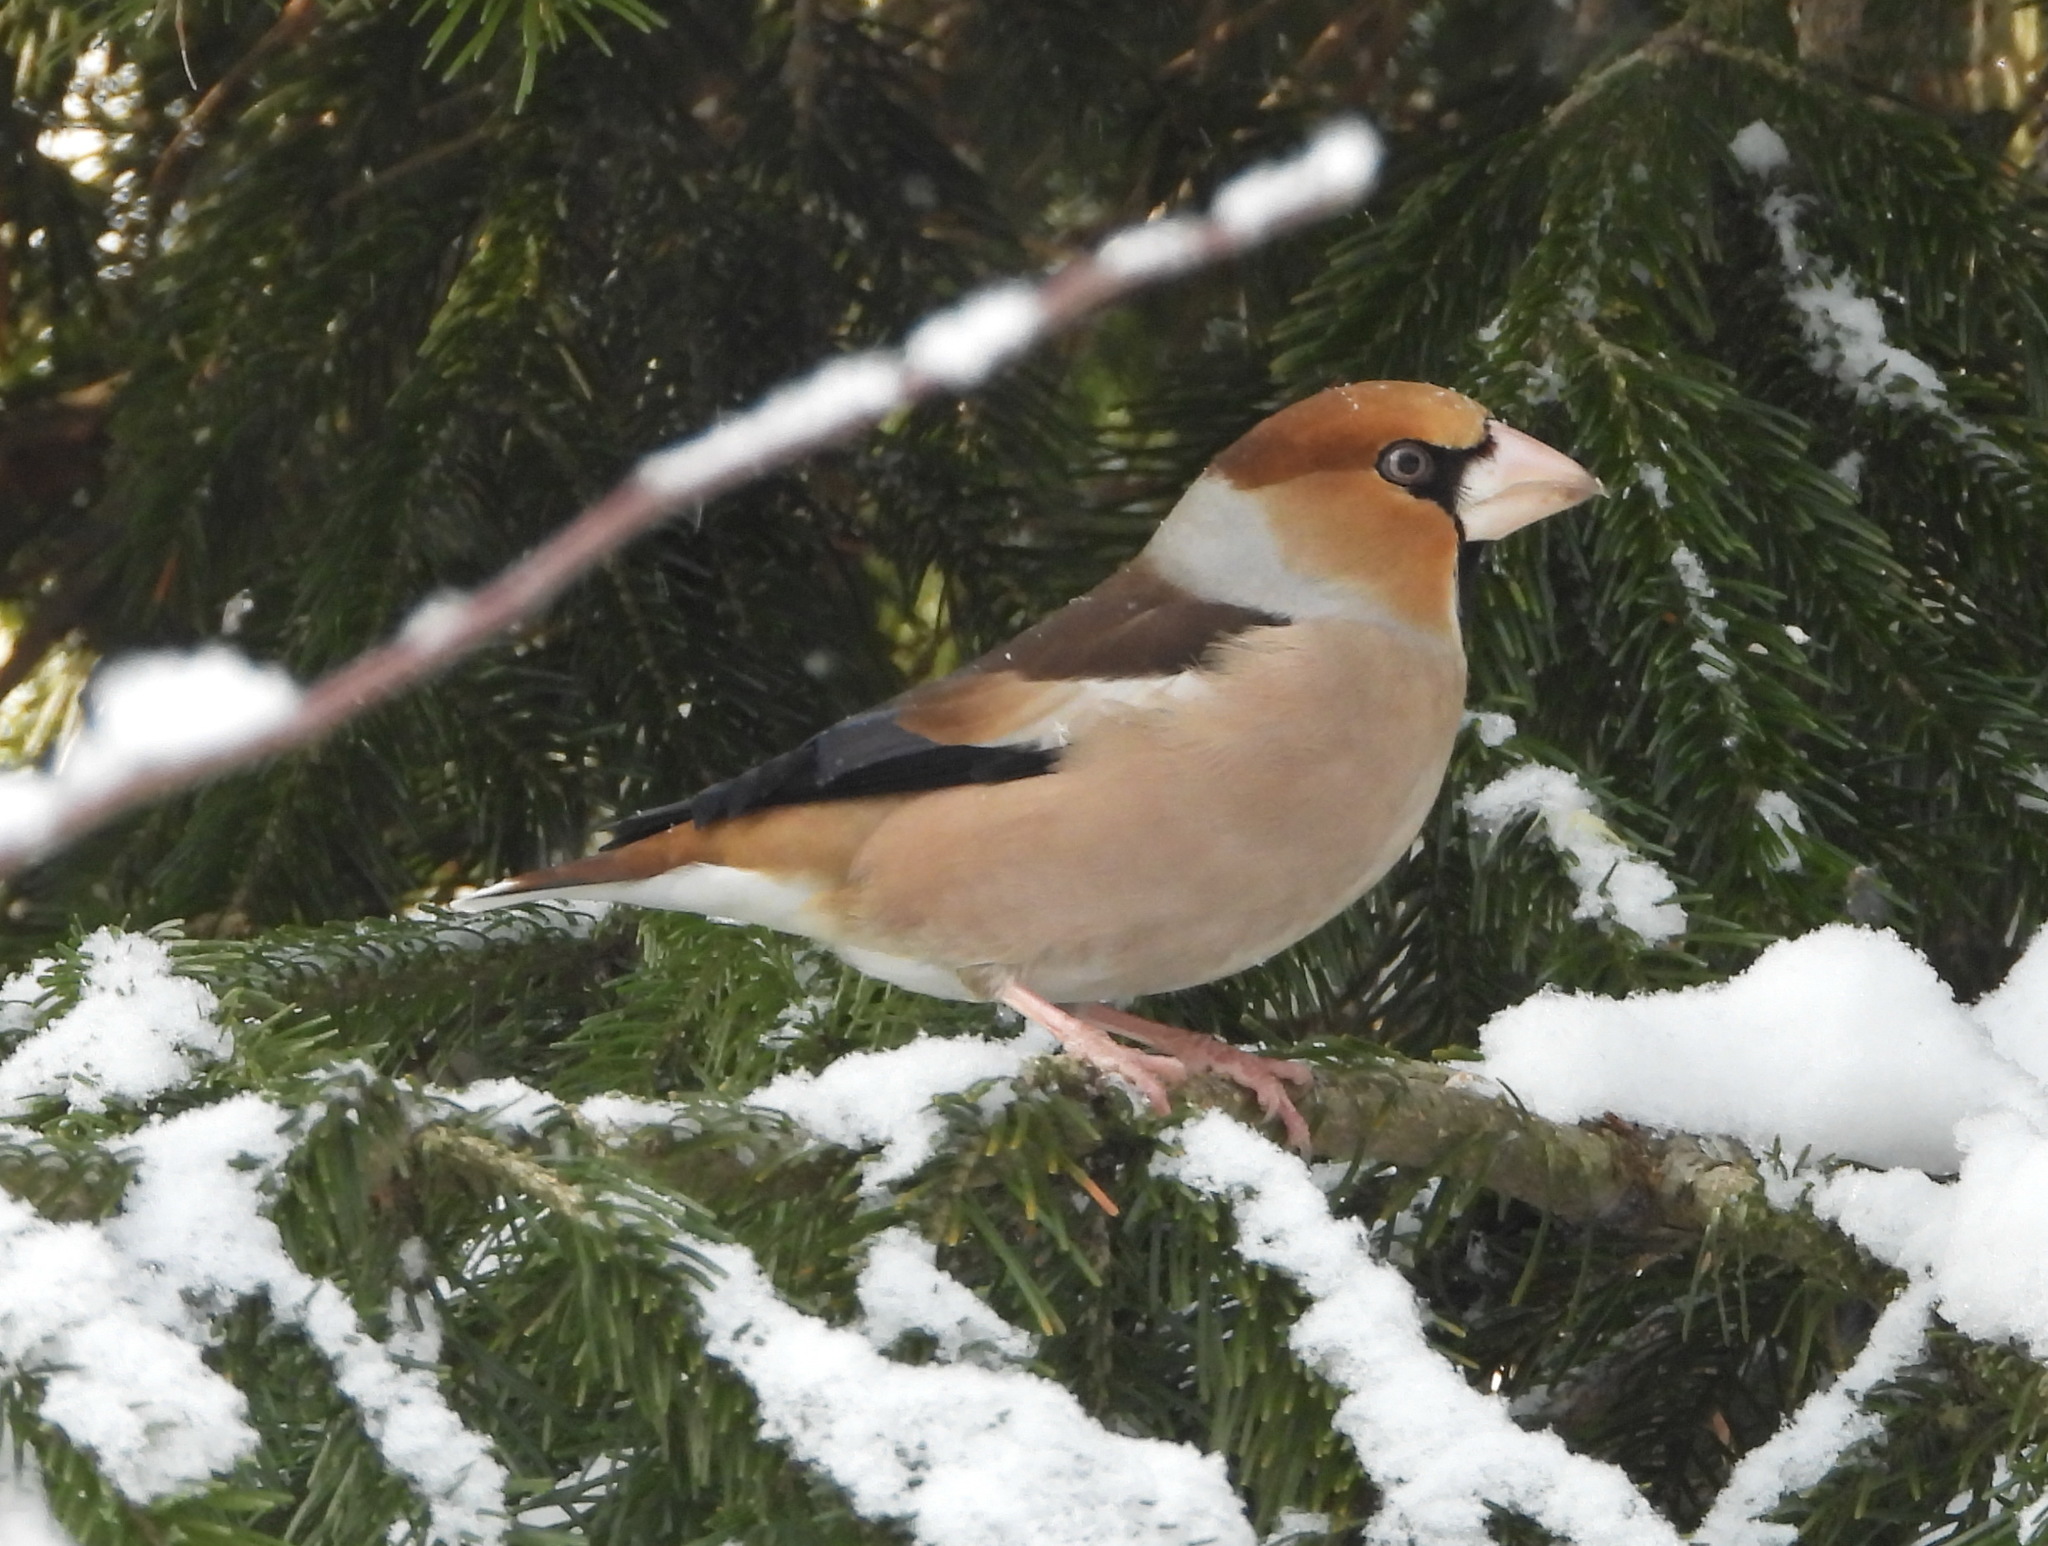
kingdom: Animalia
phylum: Chordata
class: Aves
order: Passeriformes
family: Fringillidae
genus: Coccothraustes
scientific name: Coccothraustes coccothraustes
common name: Hawfinch
